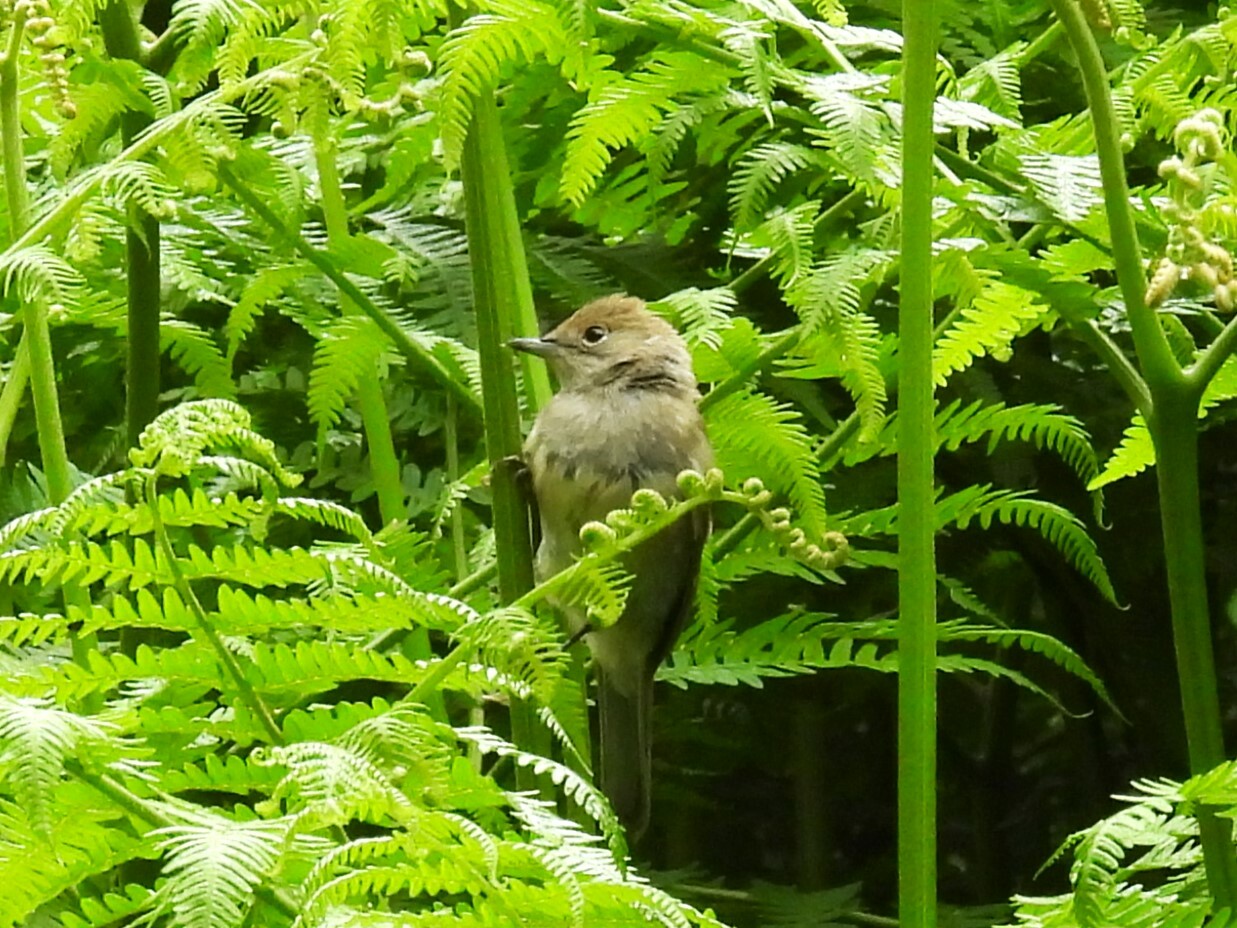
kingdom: Animalia
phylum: Chordata
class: Aves
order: Passeriformes
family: Sylviidae
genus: Sylvia
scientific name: Sylvia atricapilla
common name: Eurasian blackcap
